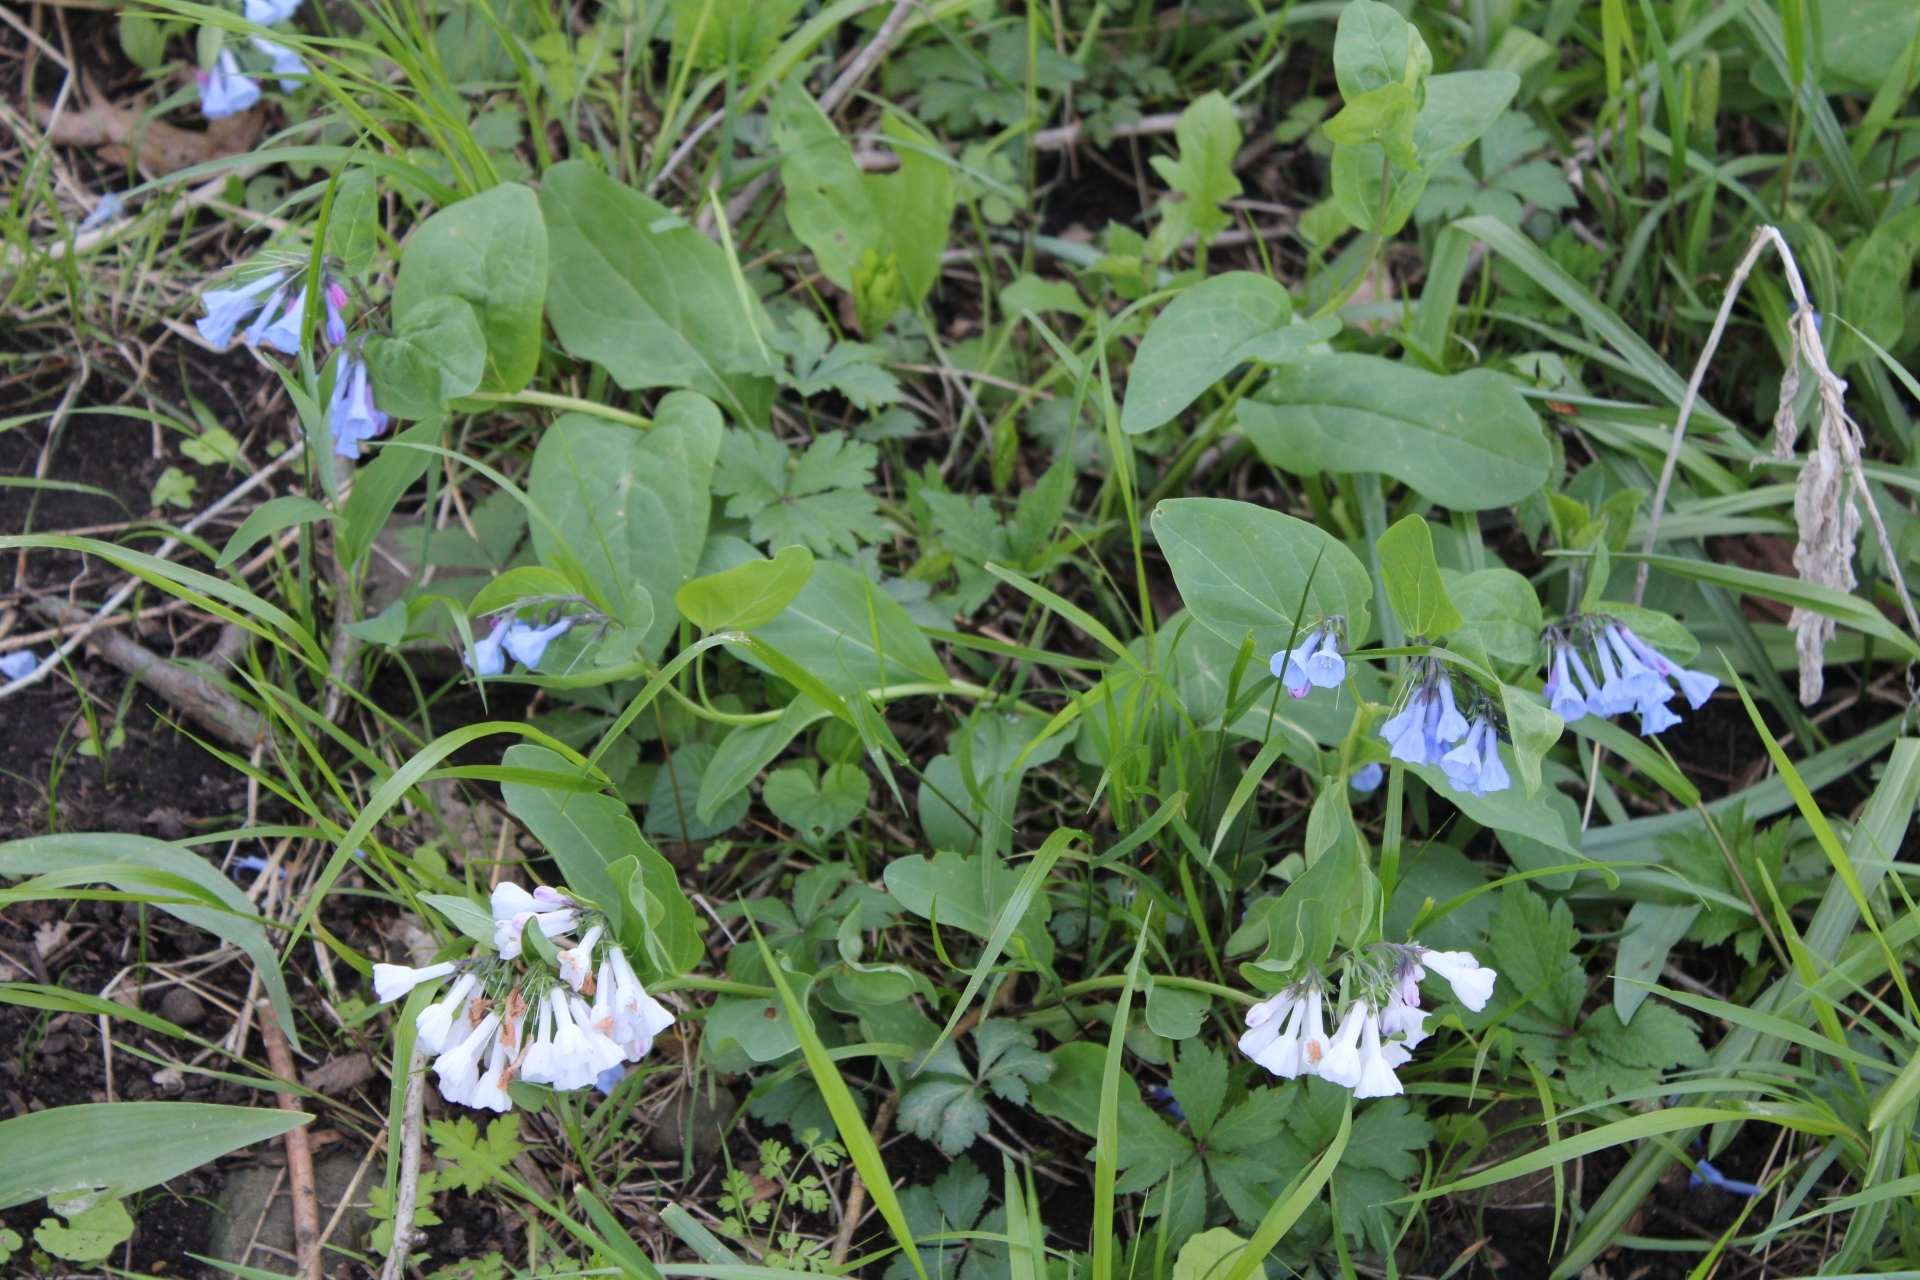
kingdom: Plantae
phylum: Tracheophyta
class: Magnoliopsida
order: Boraginales
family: Boraginaceae
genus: Mertensia
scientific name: Mertensia virginica
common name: Virginia bluebells
